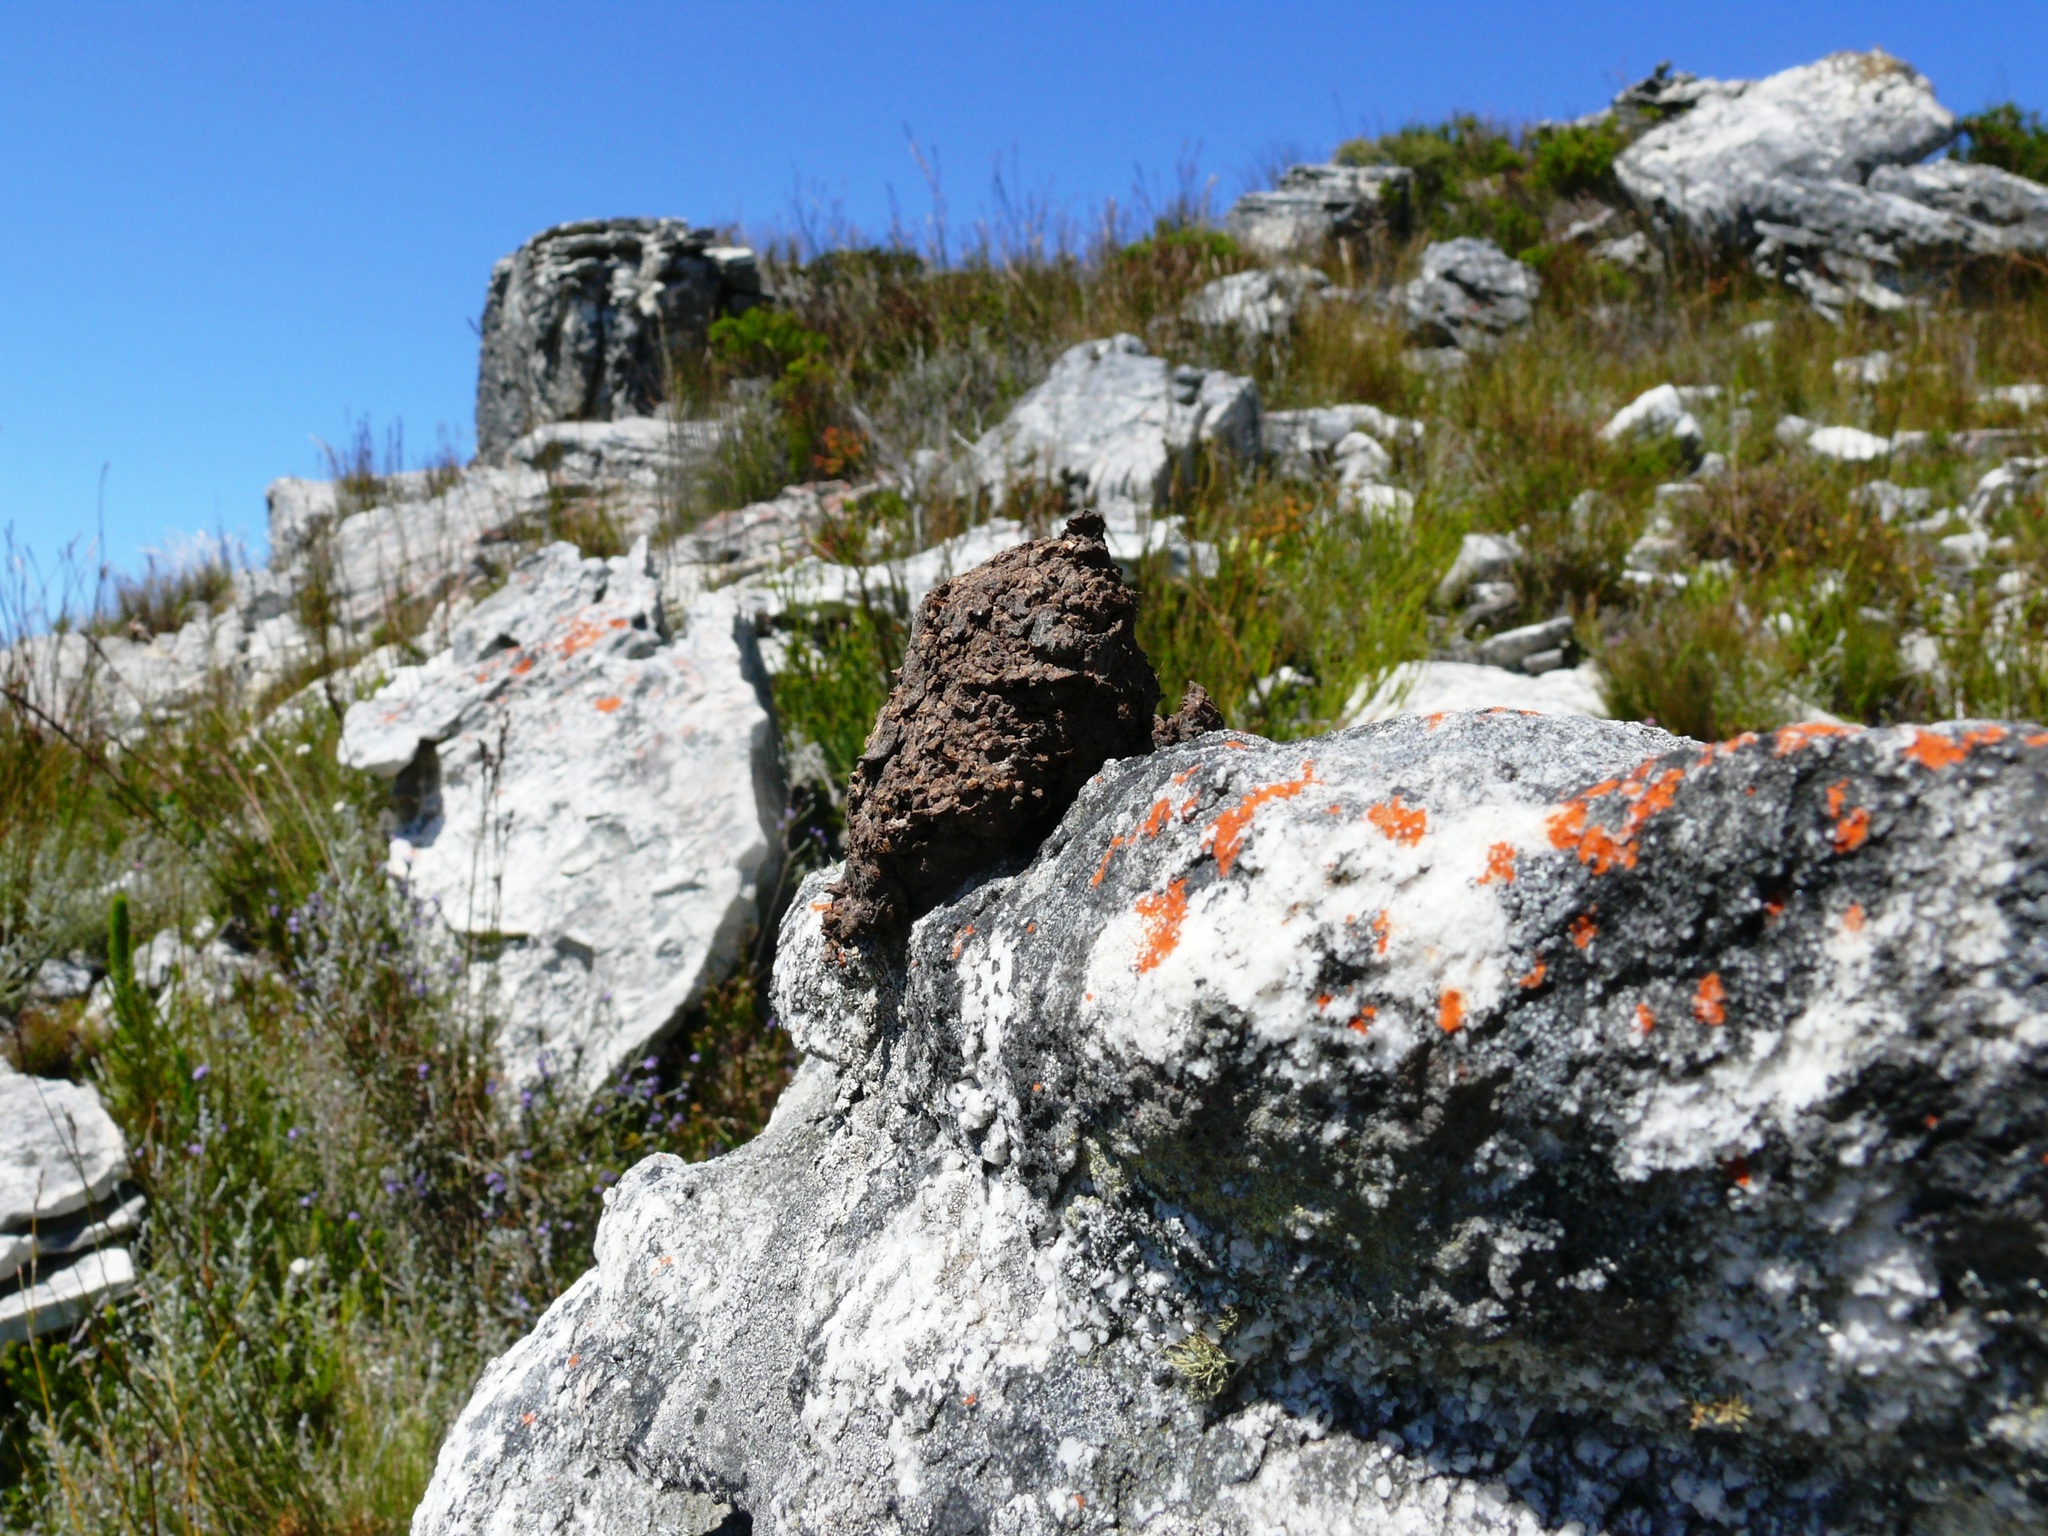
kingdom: Animalia
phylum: Chordata
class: Mammalia
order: Primates
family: Cercopithecidae
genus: Papio
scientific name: Papio ursinus
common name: Chacma baboon
